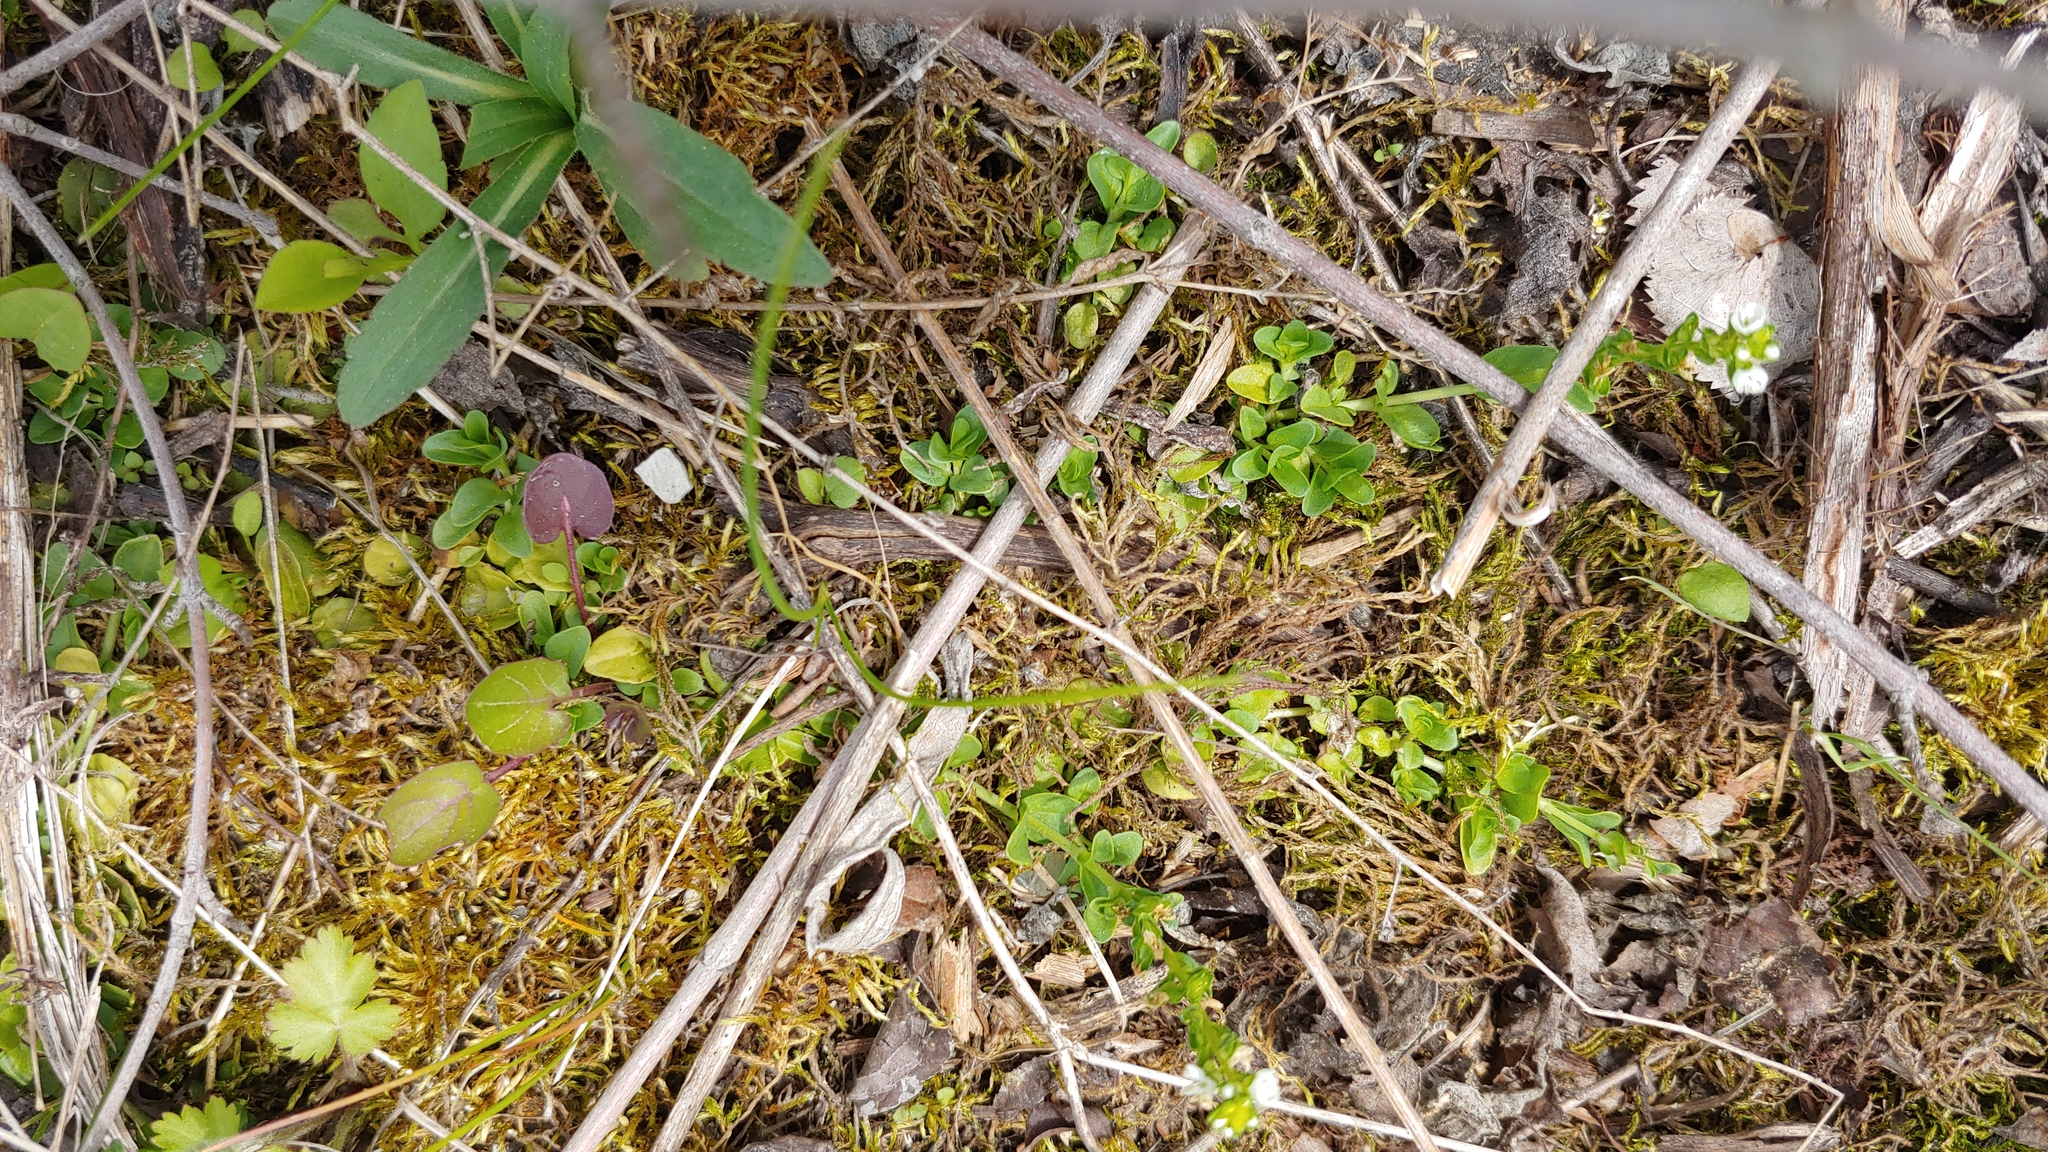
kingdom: Plantae
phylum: Tracheophyta
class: Magnoliopsida
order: Lamiales
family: Plantaginaceae
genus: Veronica
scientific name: Veronica serpyllifolia
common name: Thyme-leaved speedwell
